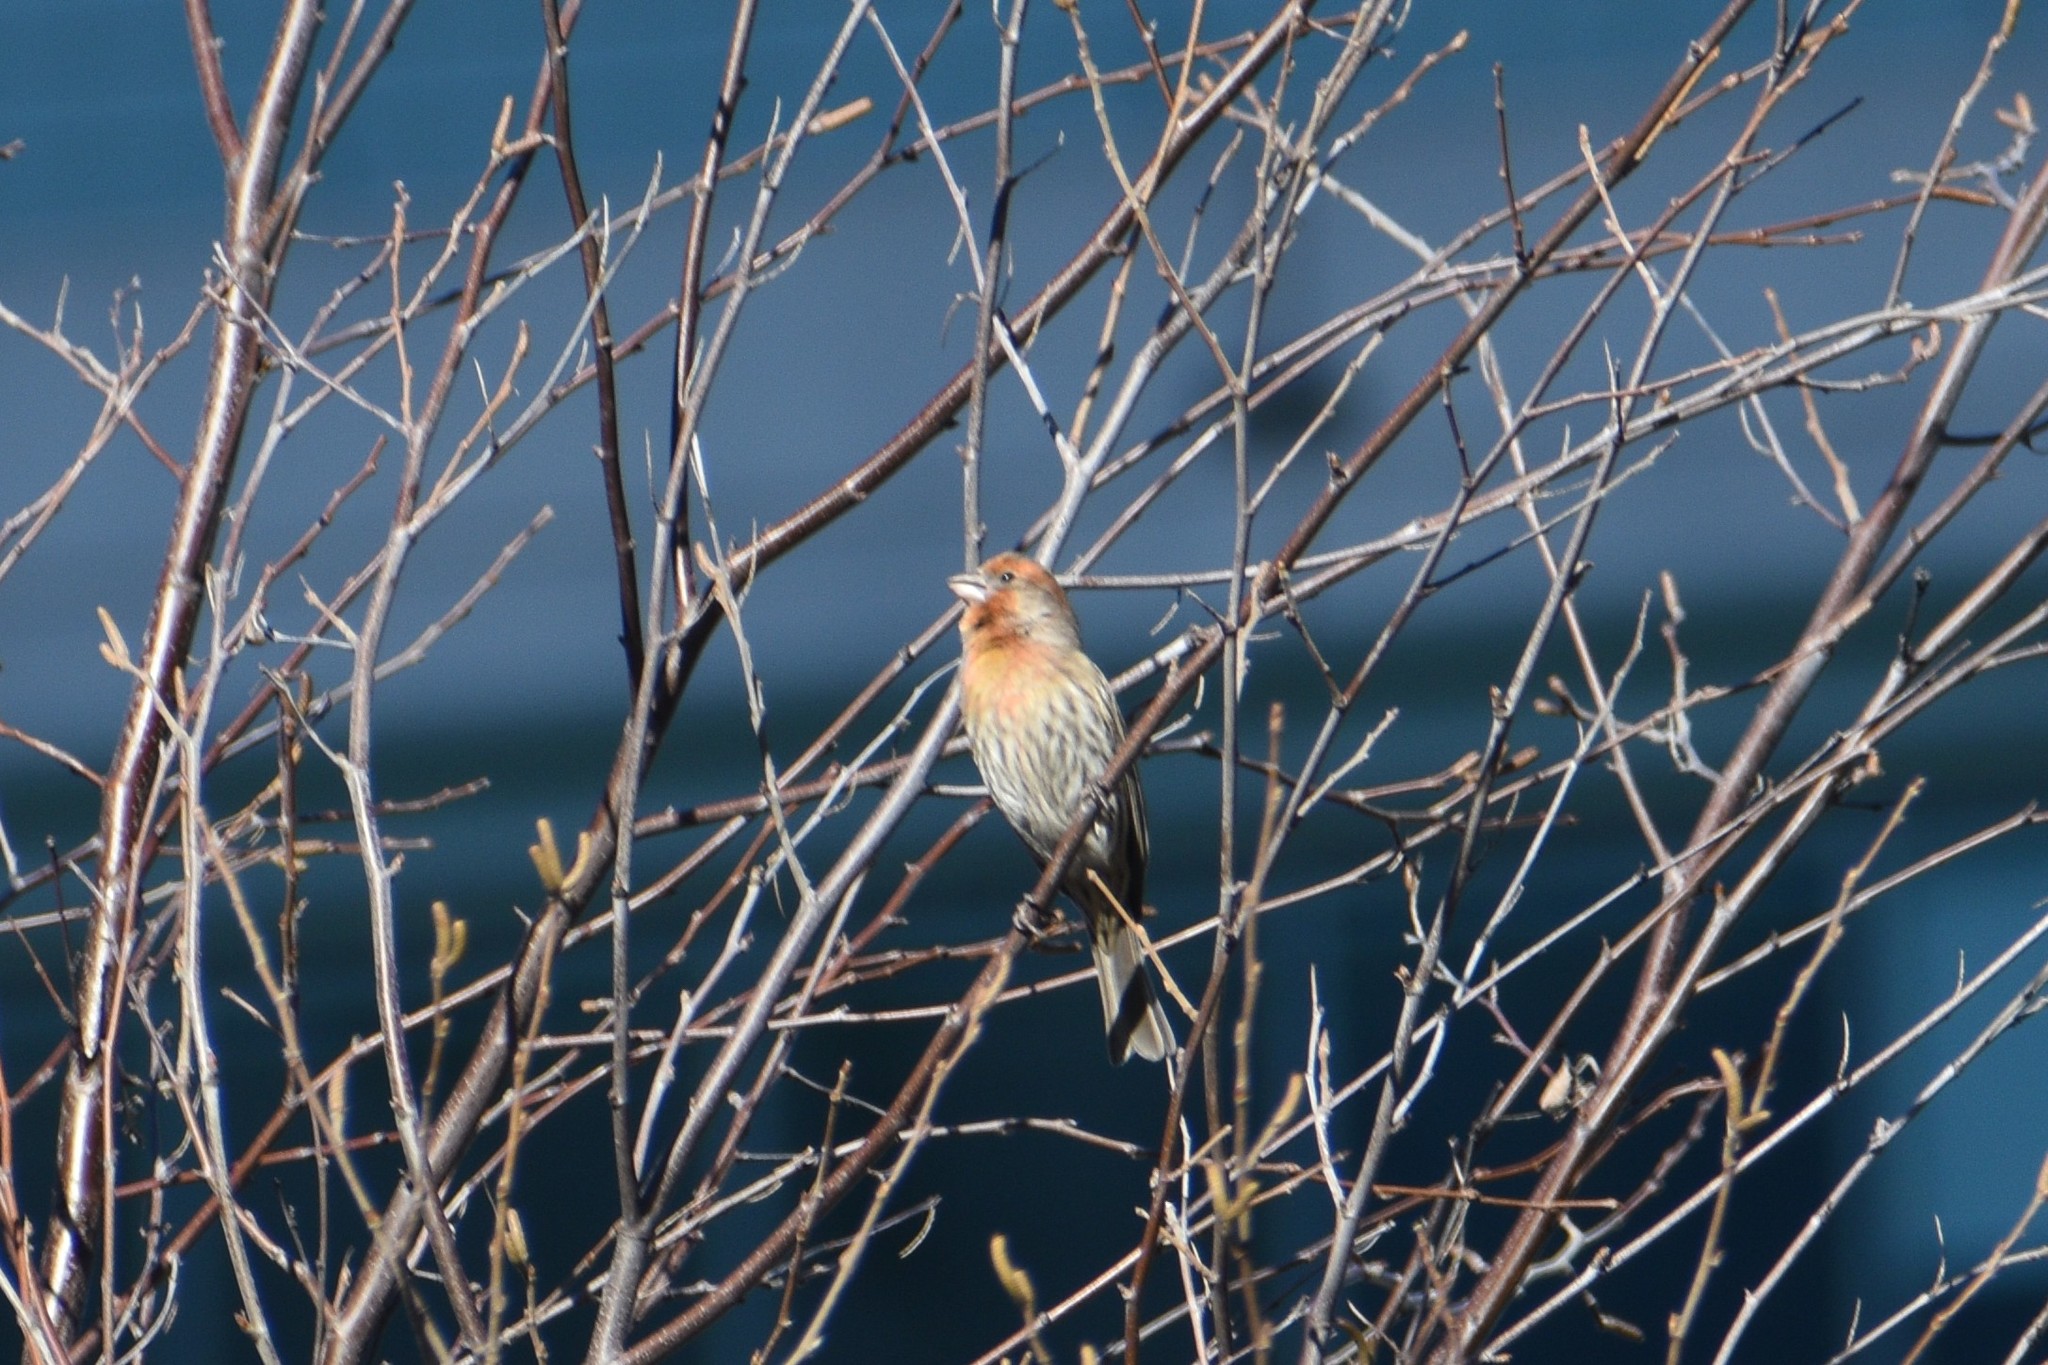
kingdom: Animalia
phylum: Chordata
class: Aves
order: Passeriformes
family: Fringillidae
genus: Haemorhous
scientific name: Haemorhous mexicanus
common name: House finch
